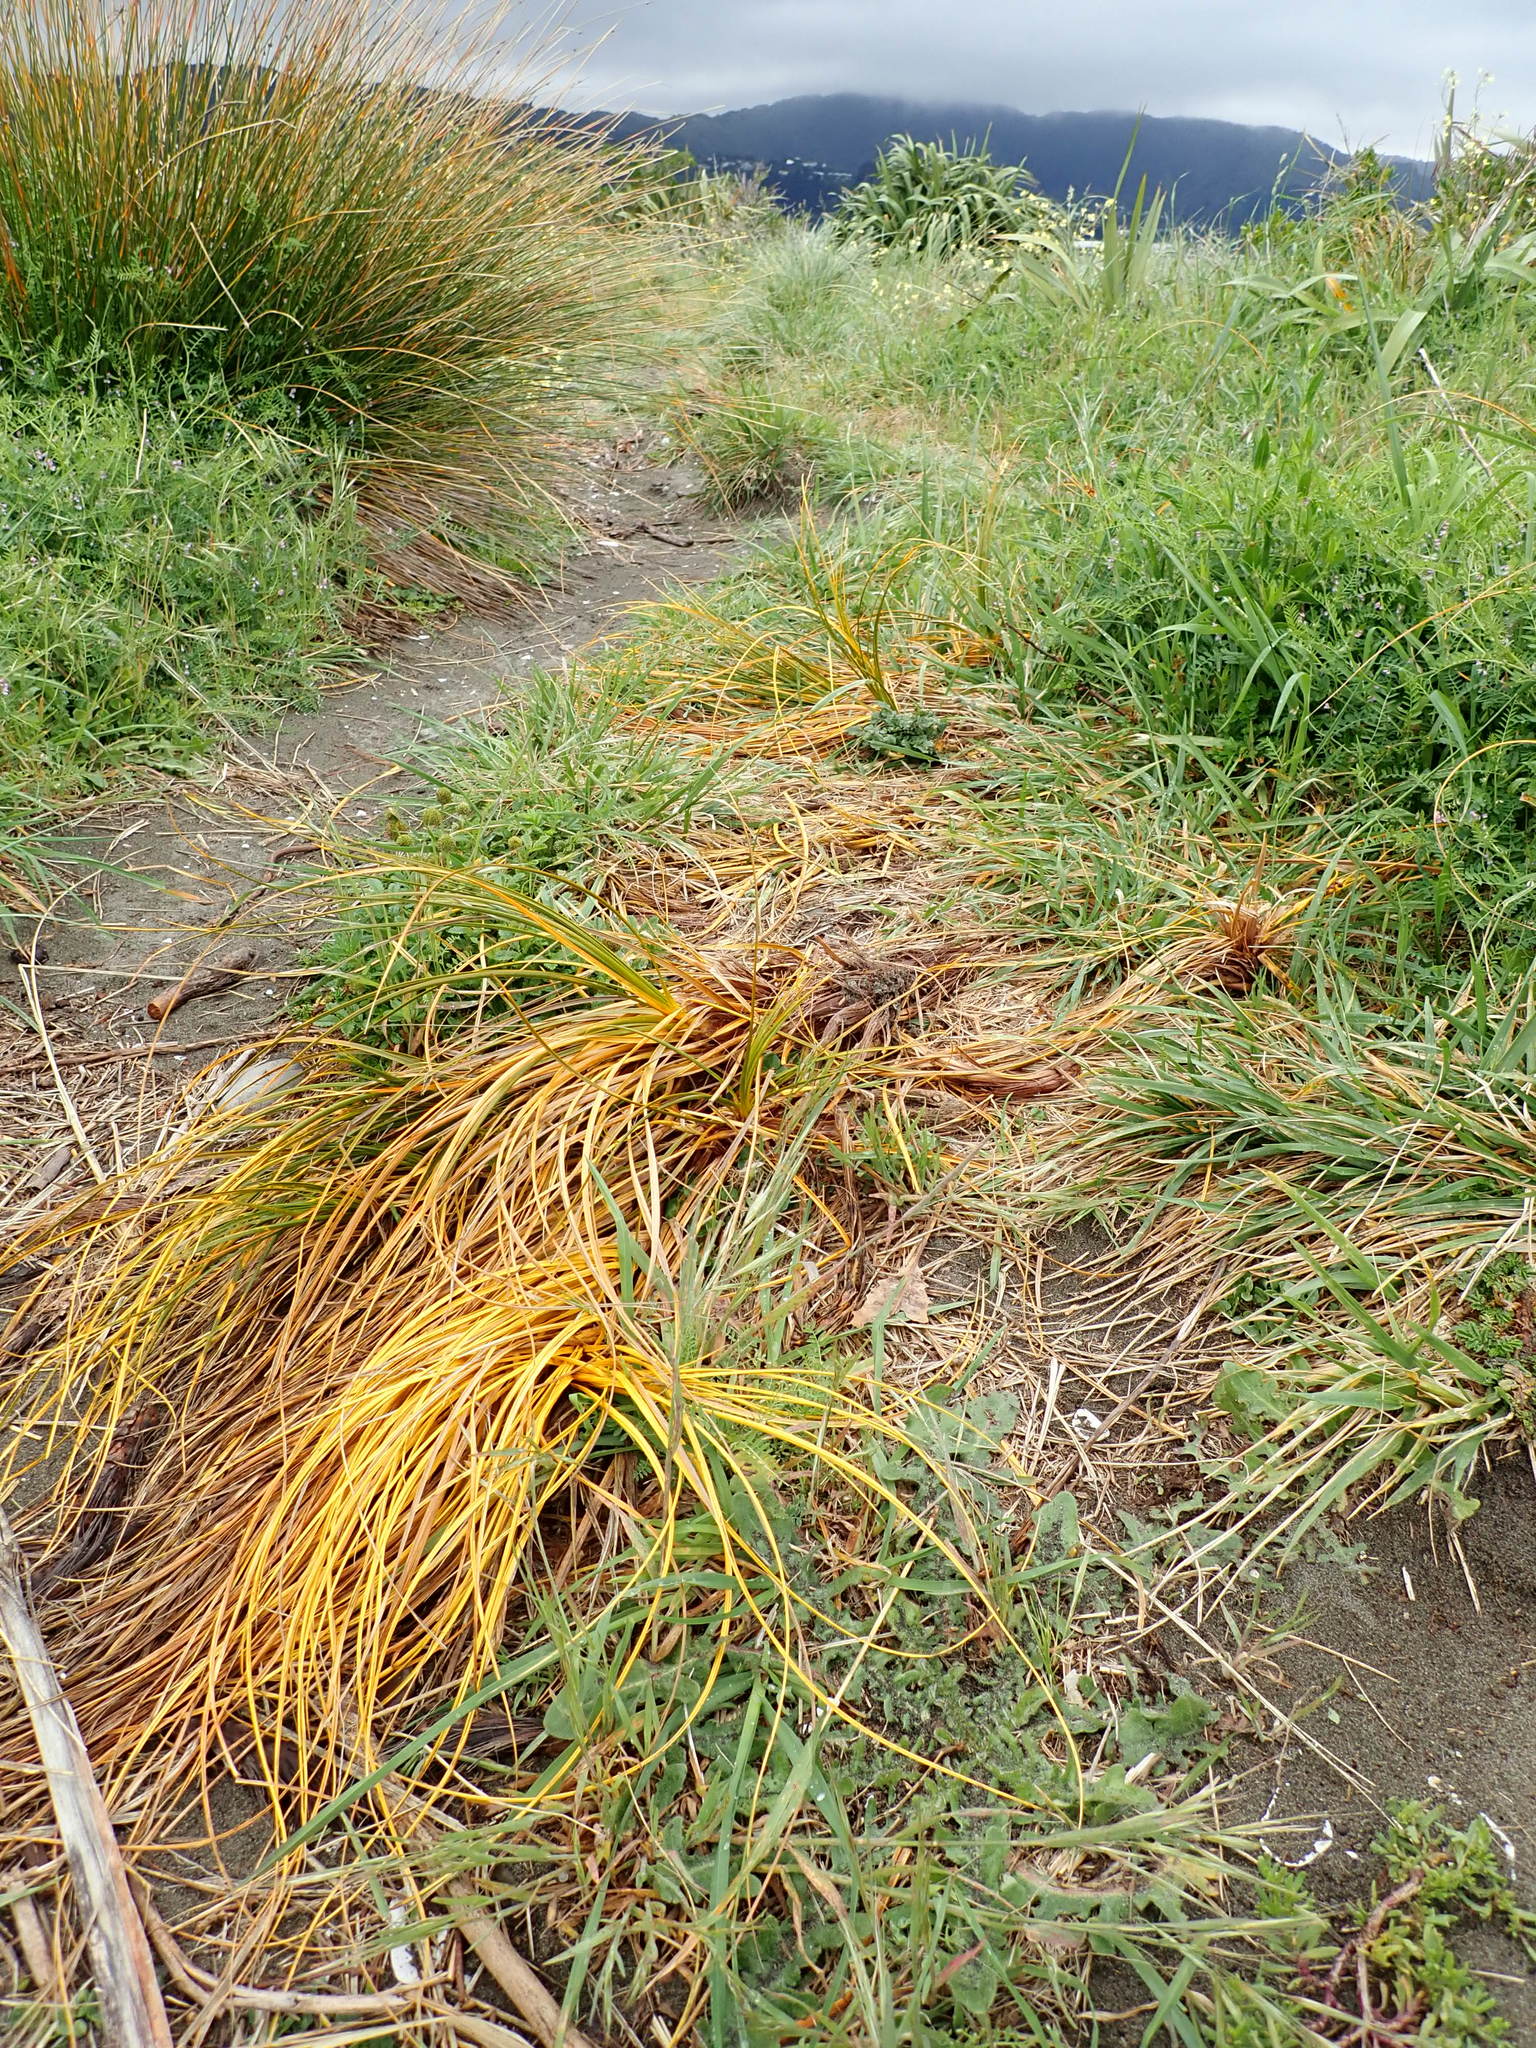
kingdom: Plantae
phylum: Tracheophyta
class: Liliopsida
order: Poales
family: Cyperaceae
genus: Ficinia
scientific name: Ficinia spiralis
